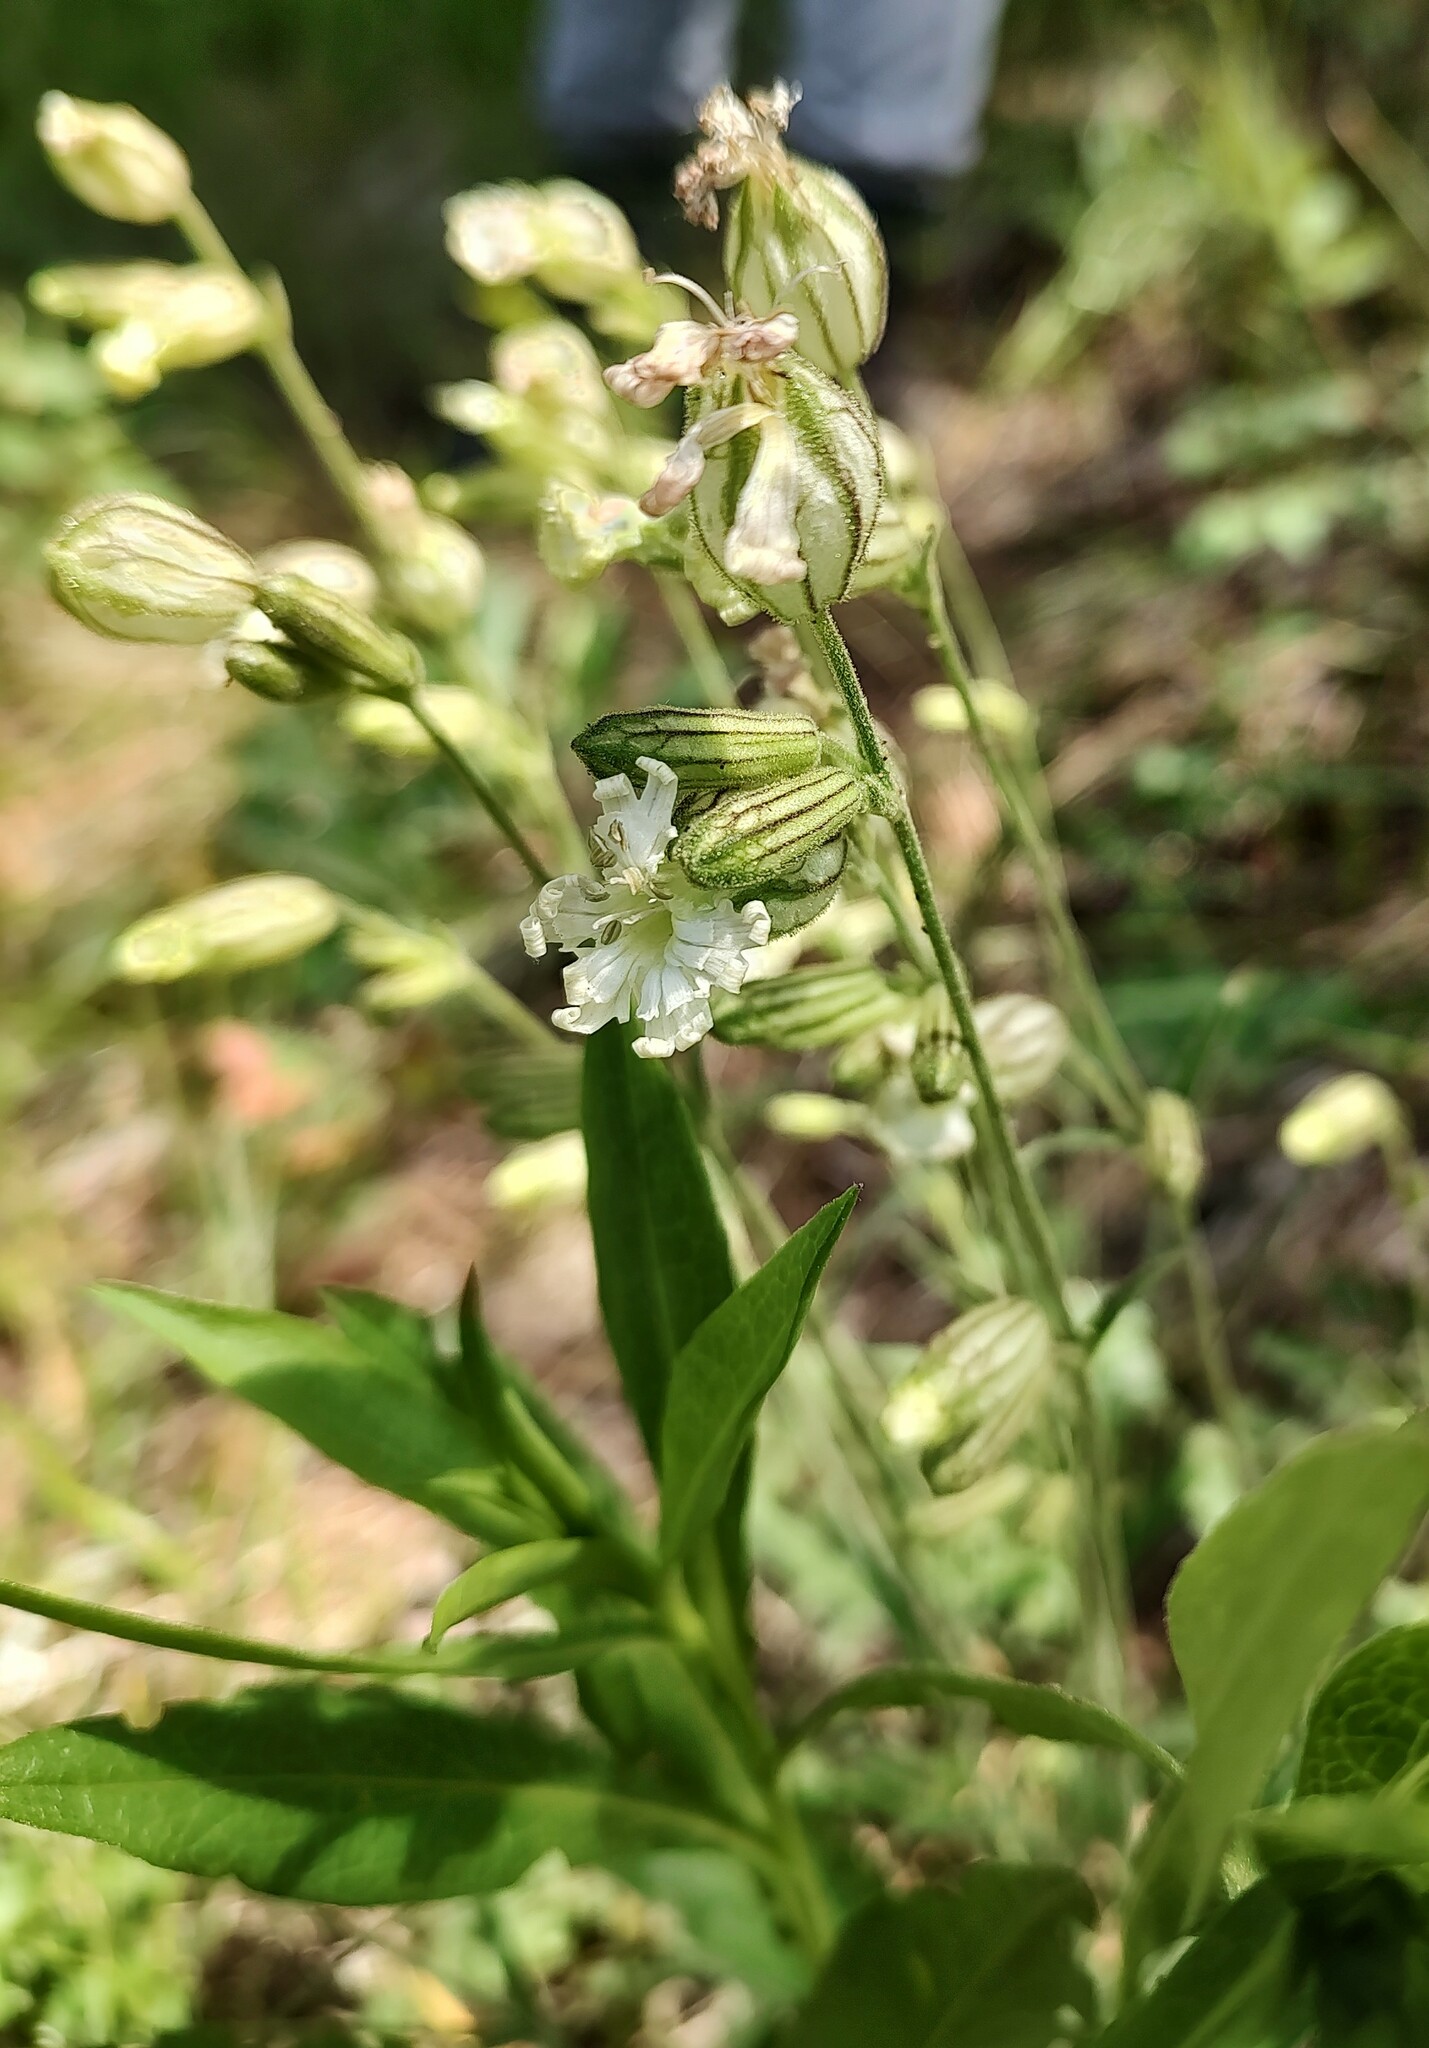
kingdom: Plantae
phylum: Tracheophyta
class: Magnoliopsida
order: Caryophyllales
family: Caryophyllaceae
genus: Silene
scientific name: Silene parryi
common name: Parry's campion
